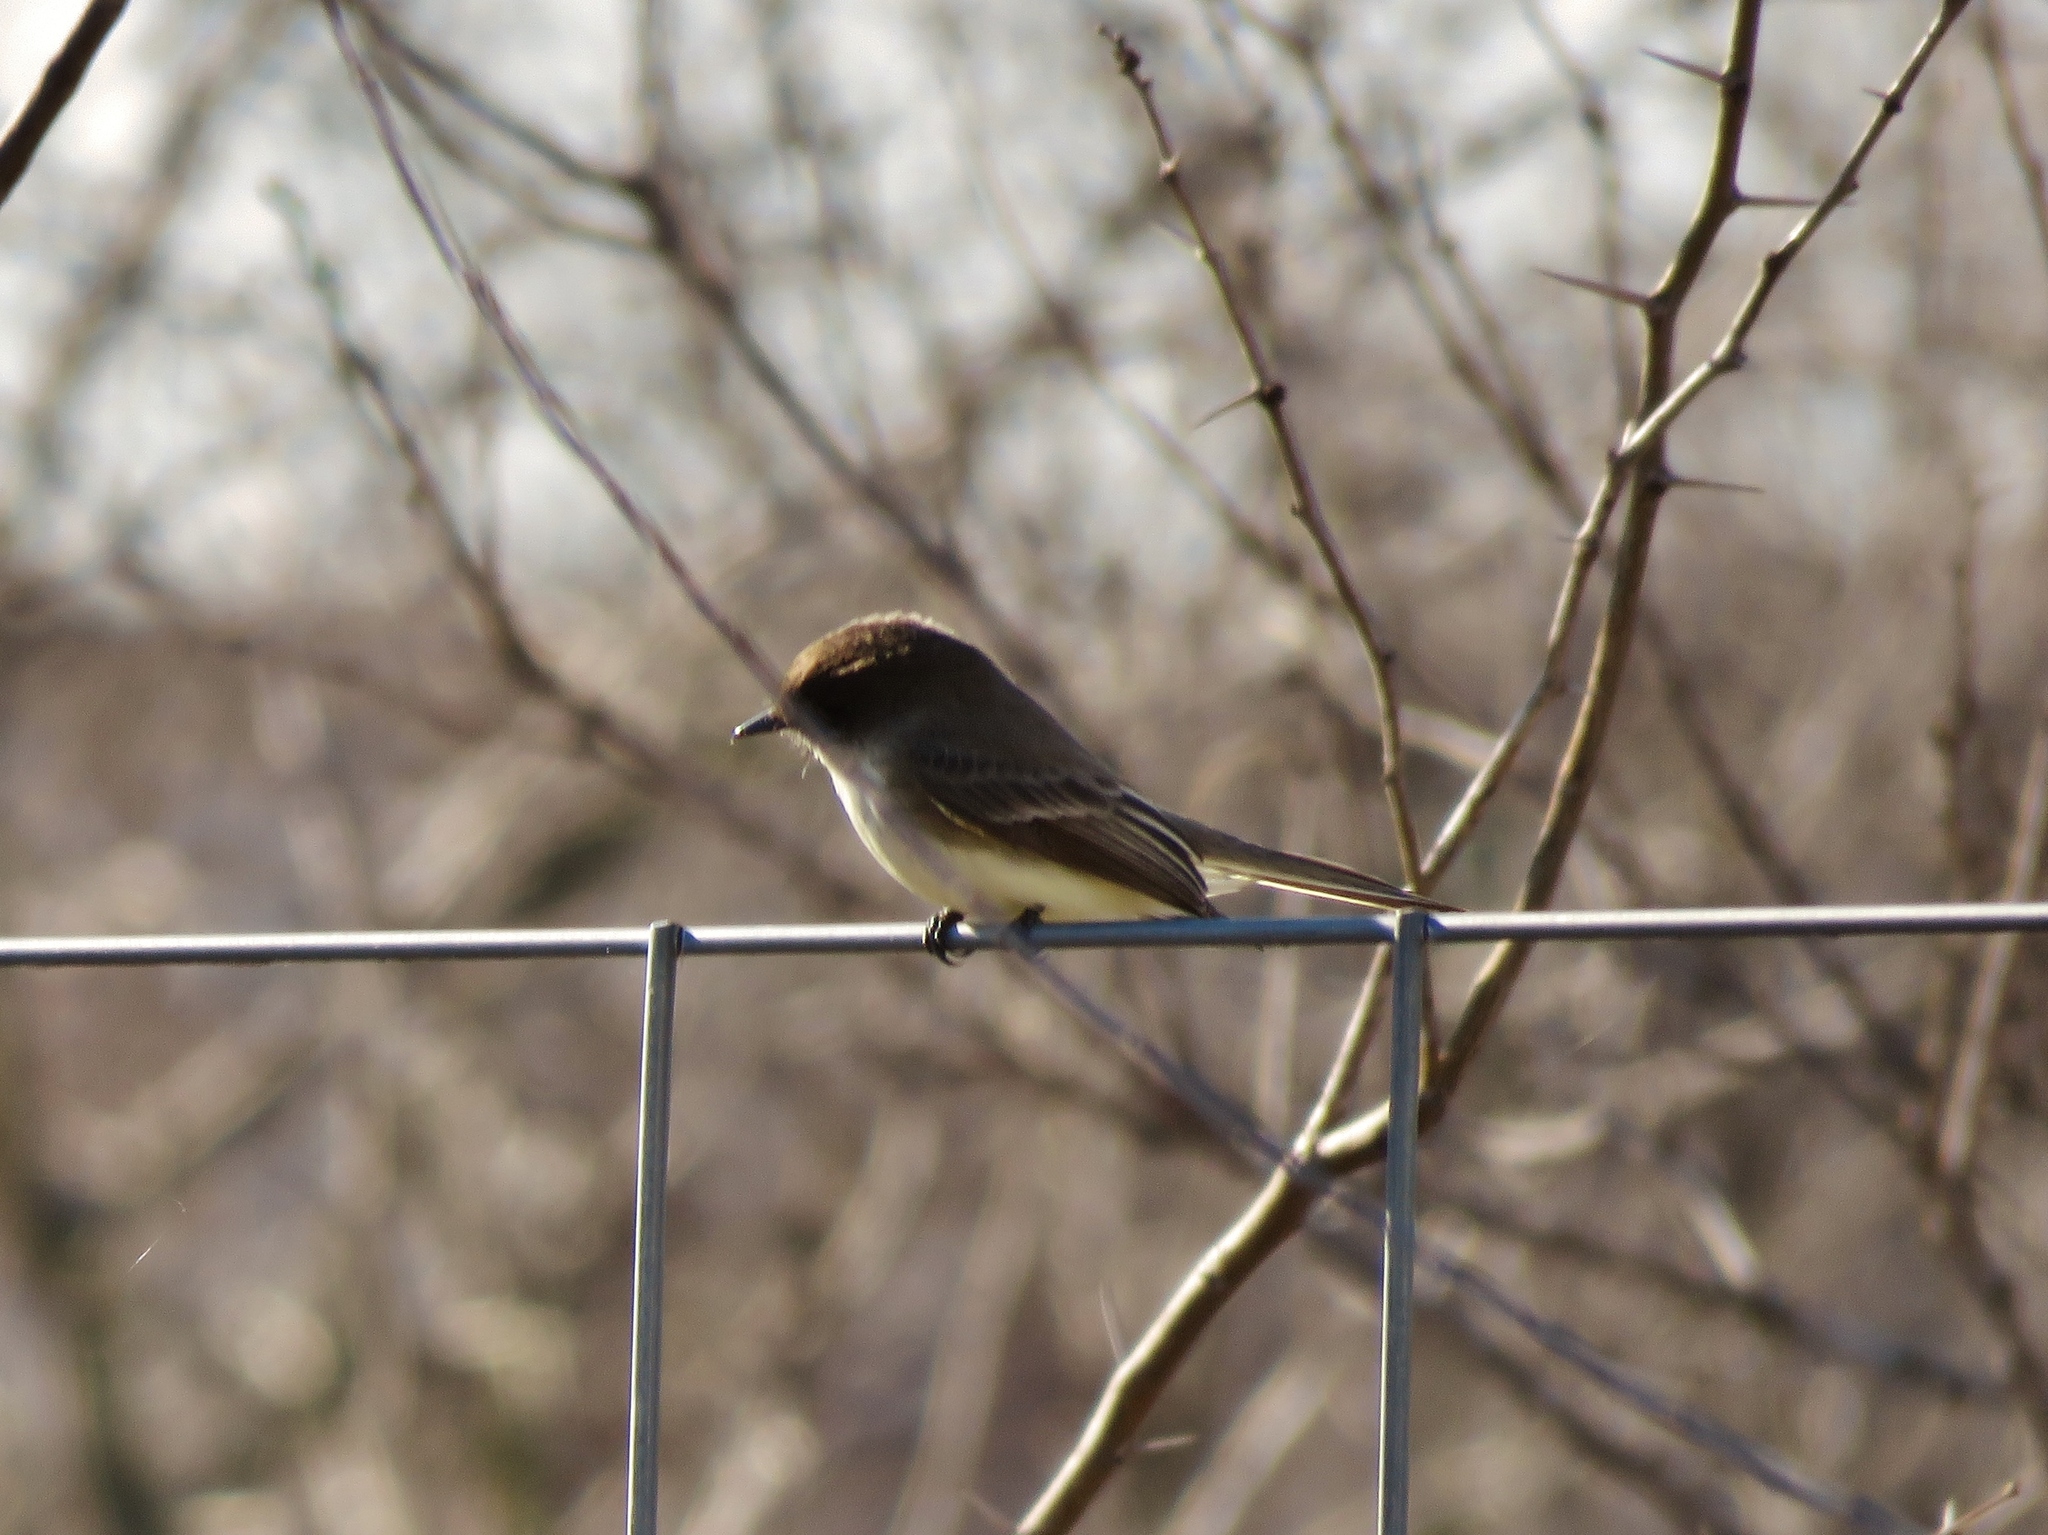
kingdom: Animalia
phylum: Chordata
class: Aves
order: Passeriformes
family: Tyrannidae
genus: Sayornis
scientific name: Sayornis phoebe
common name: Eastern phoebe
